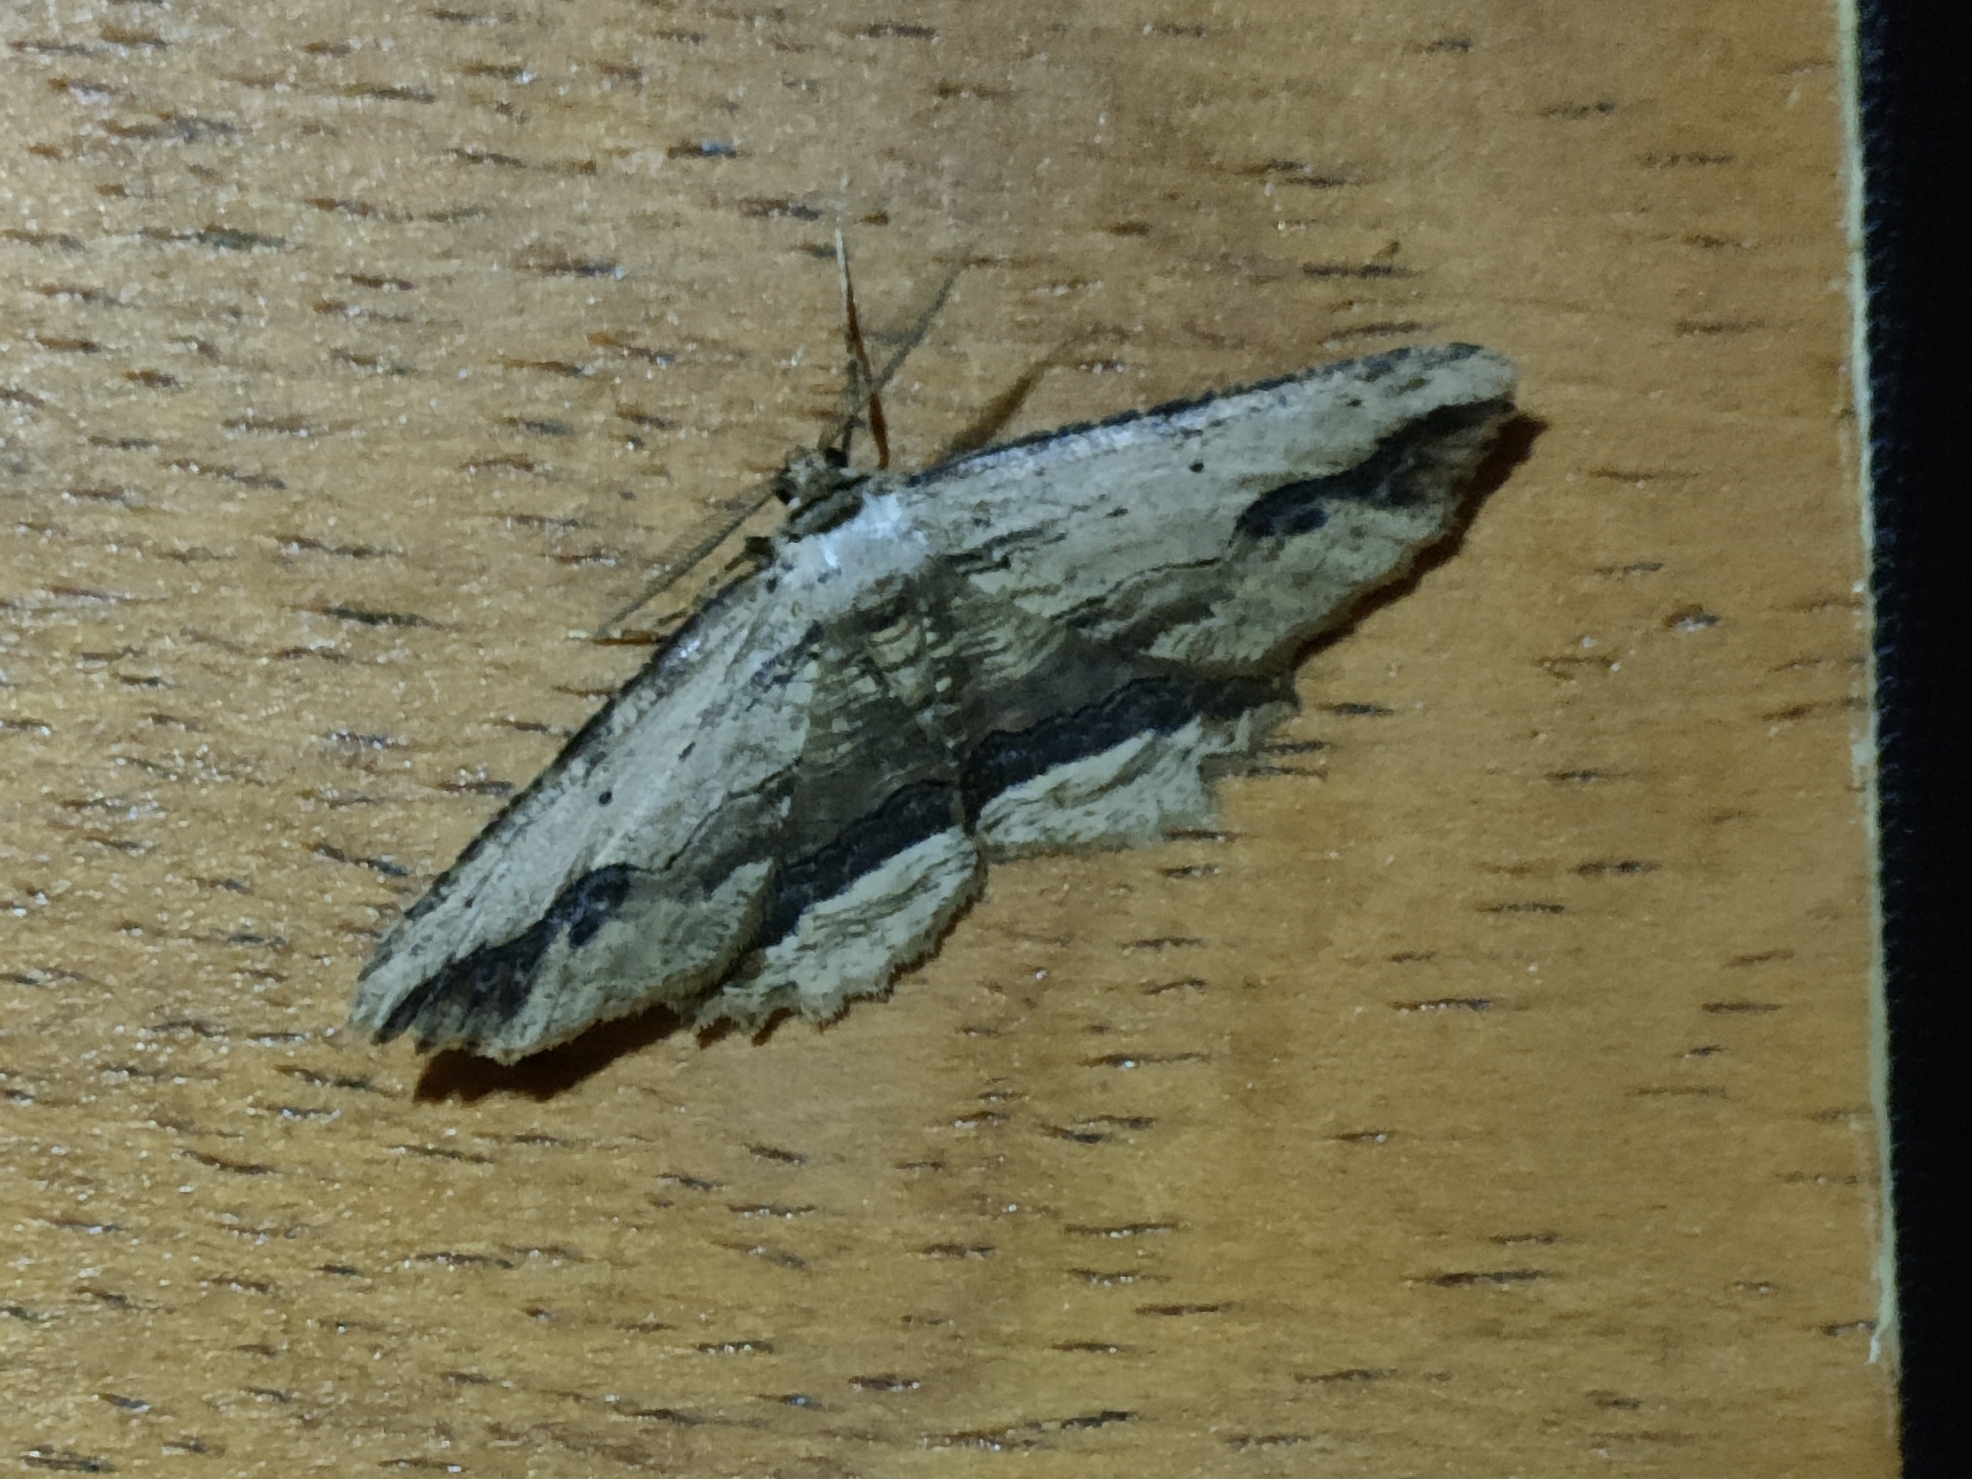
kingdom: Animalia
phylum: Arthropoda
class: Insecta
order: Lepidoptera
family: Geometridae
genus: Menophra
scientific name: Menophra abruptaria
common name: Waved umber
